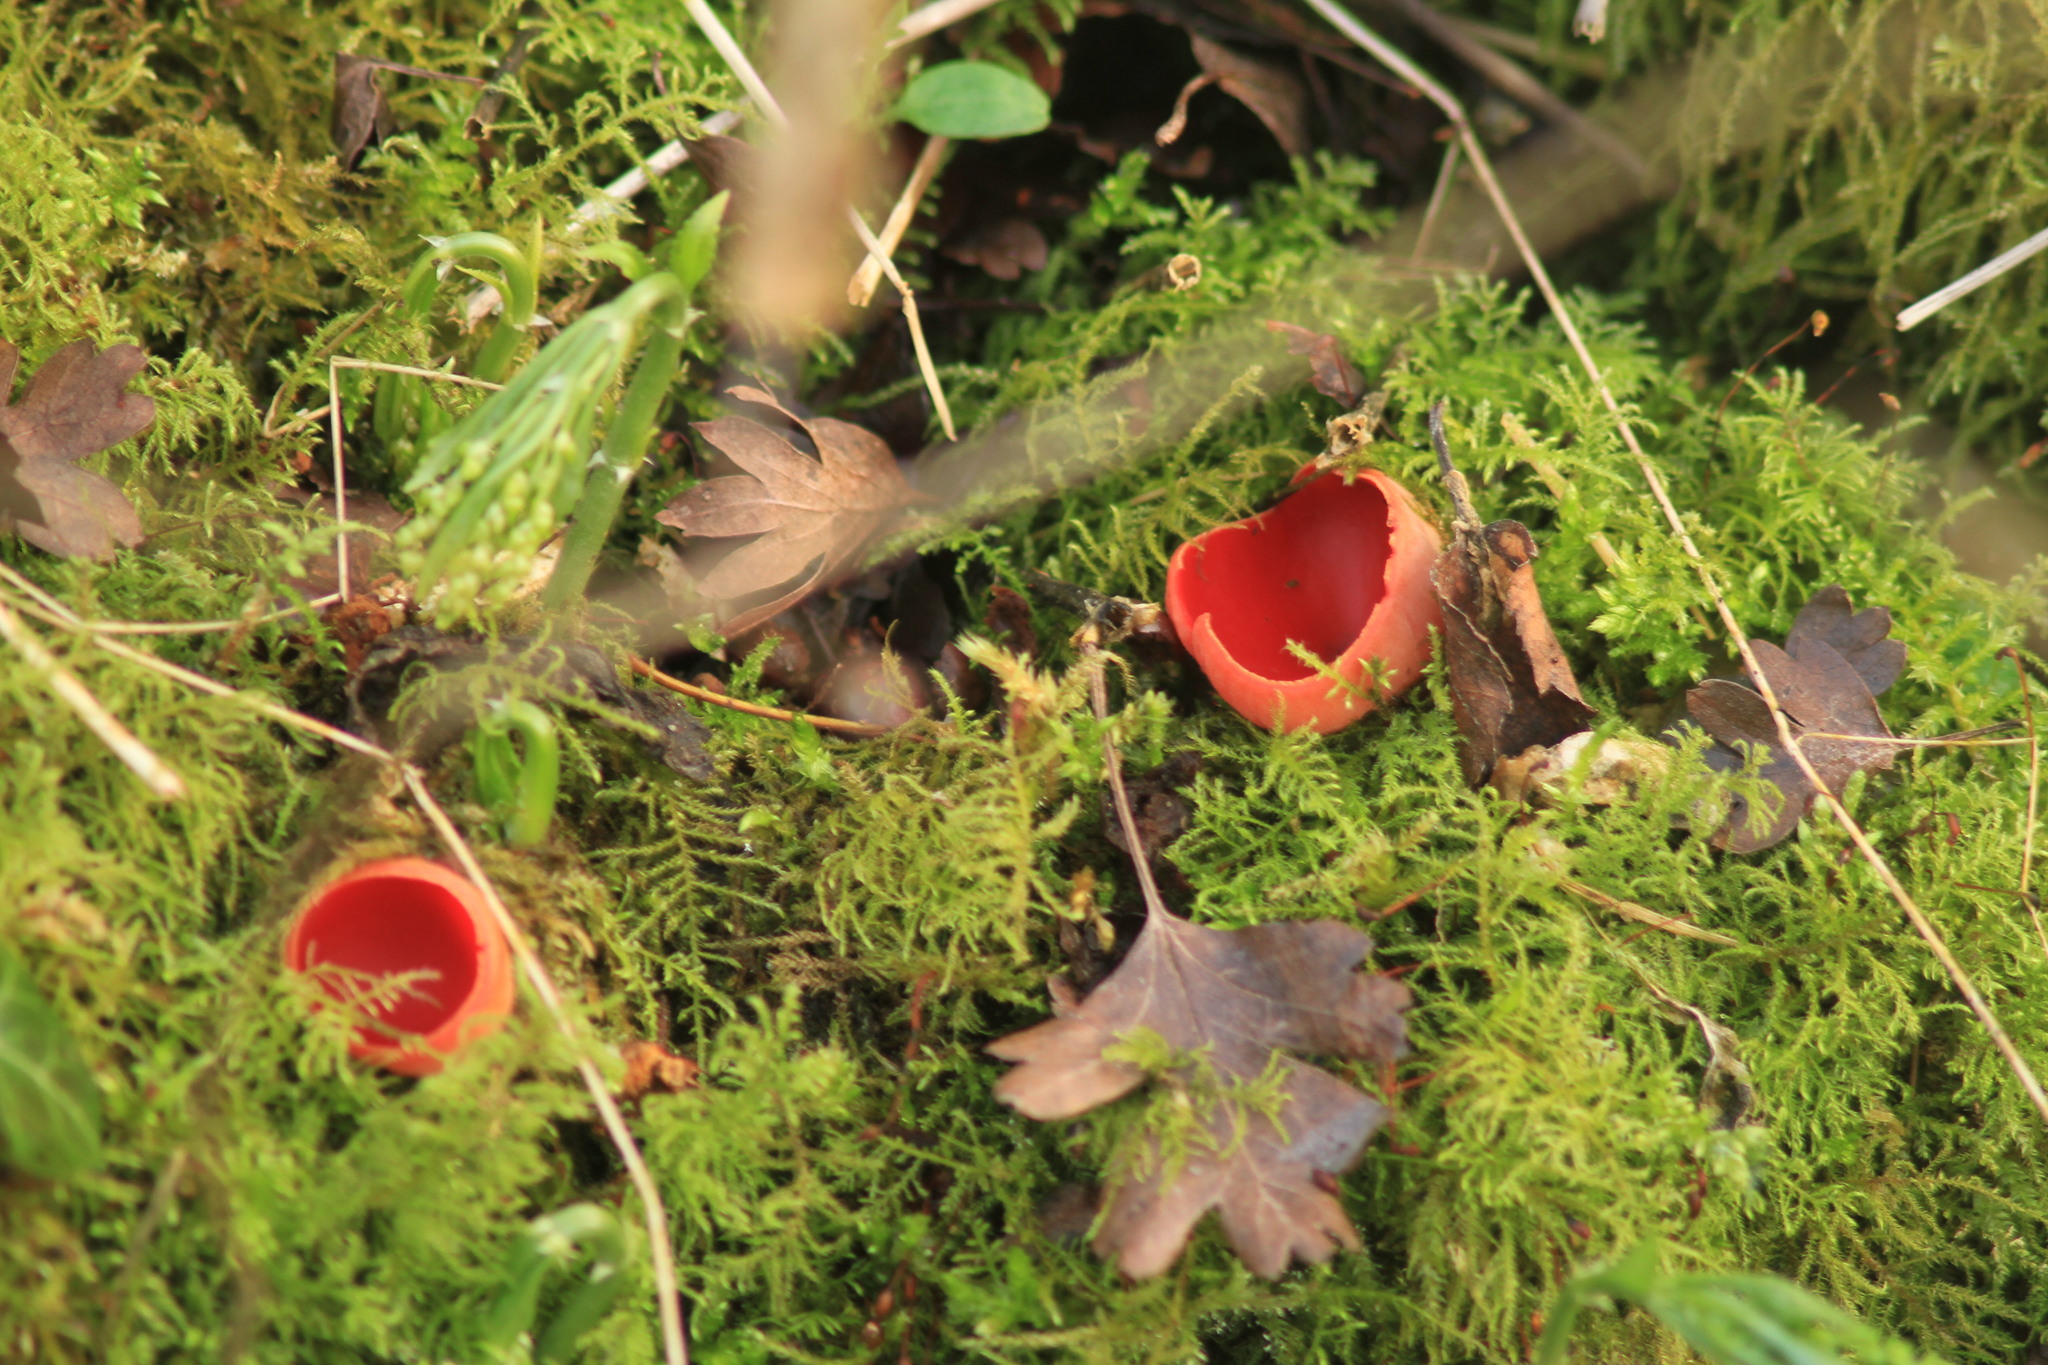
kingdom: Fungi
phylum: Ascomycota
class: Pezizomycetes
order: Pezizales
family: Sarcoscyphaceae
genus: Sarcoscypha
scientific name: Sarcoscypha
